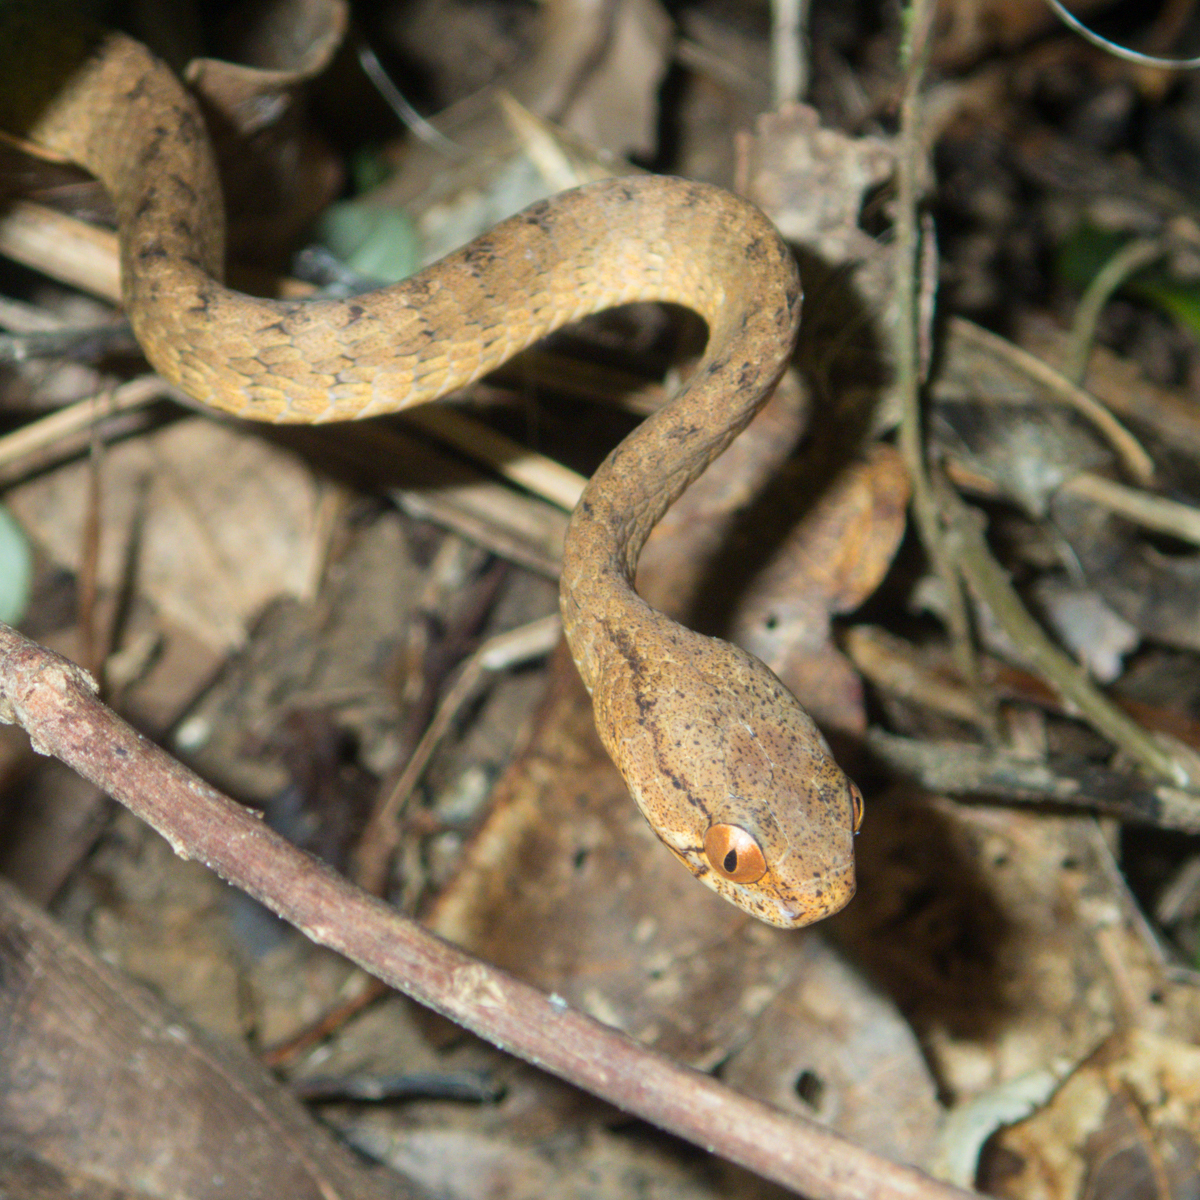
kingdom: Animalia
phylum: Chordata
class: Squamata
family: Pareidae
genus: Pareas
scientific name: Pareas carinatus
